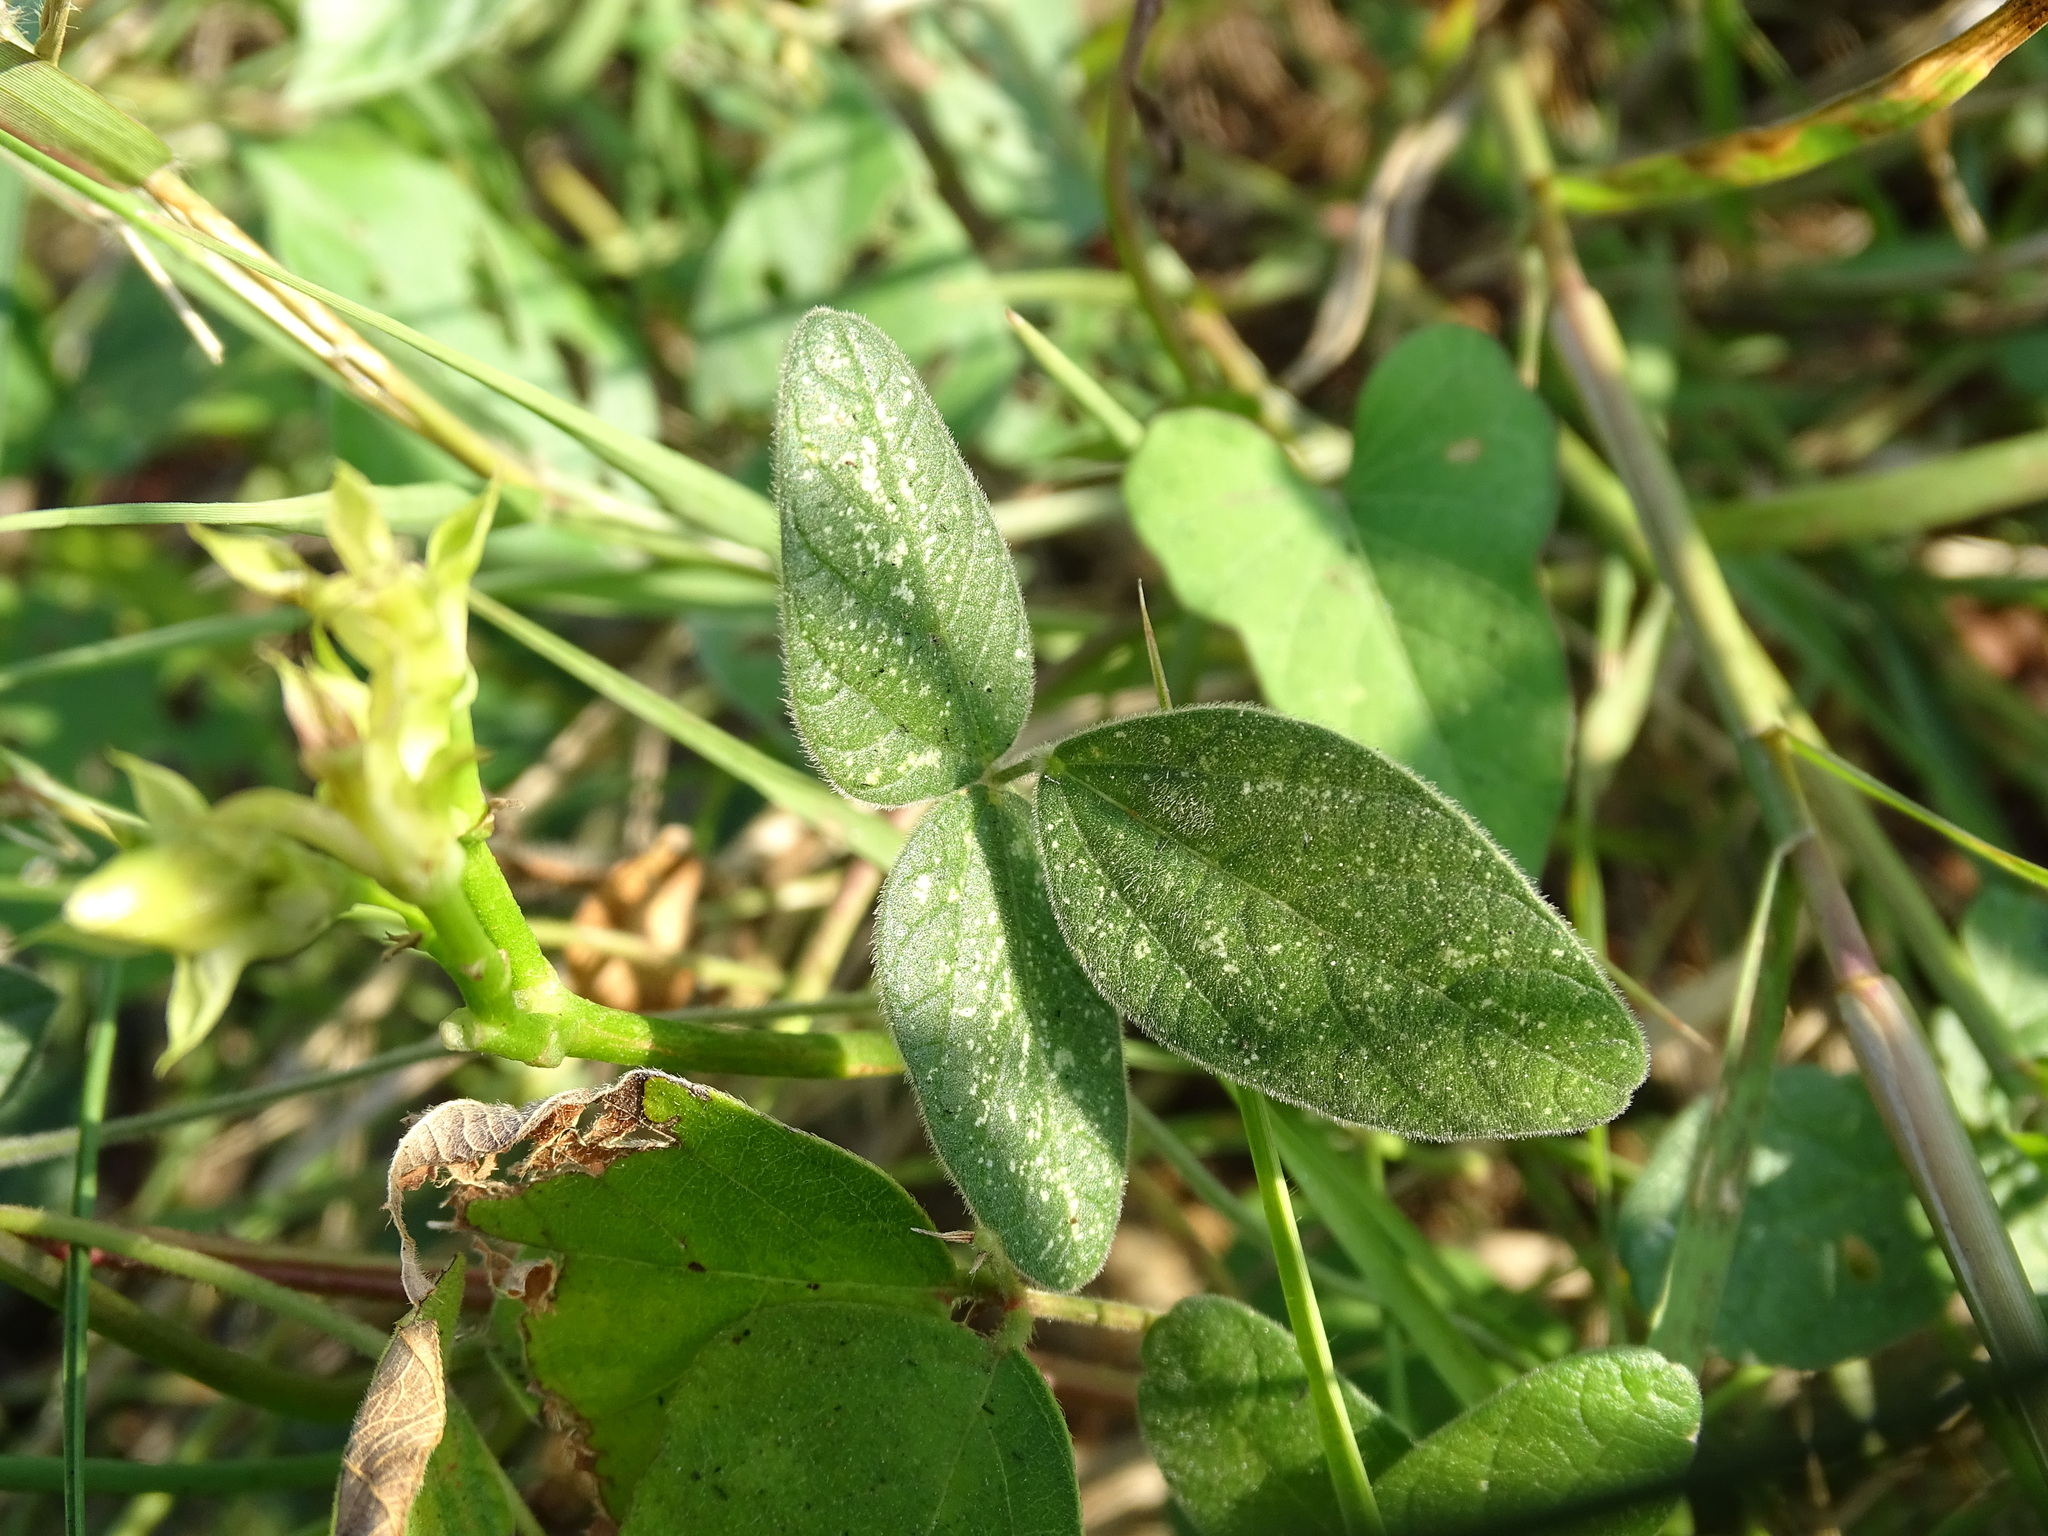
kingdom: Plantae
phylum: Tracheophyta
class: Magnoliopsida
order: Fabales
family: Fabaceae
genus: Desmodium
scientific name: Desmodium infractum
